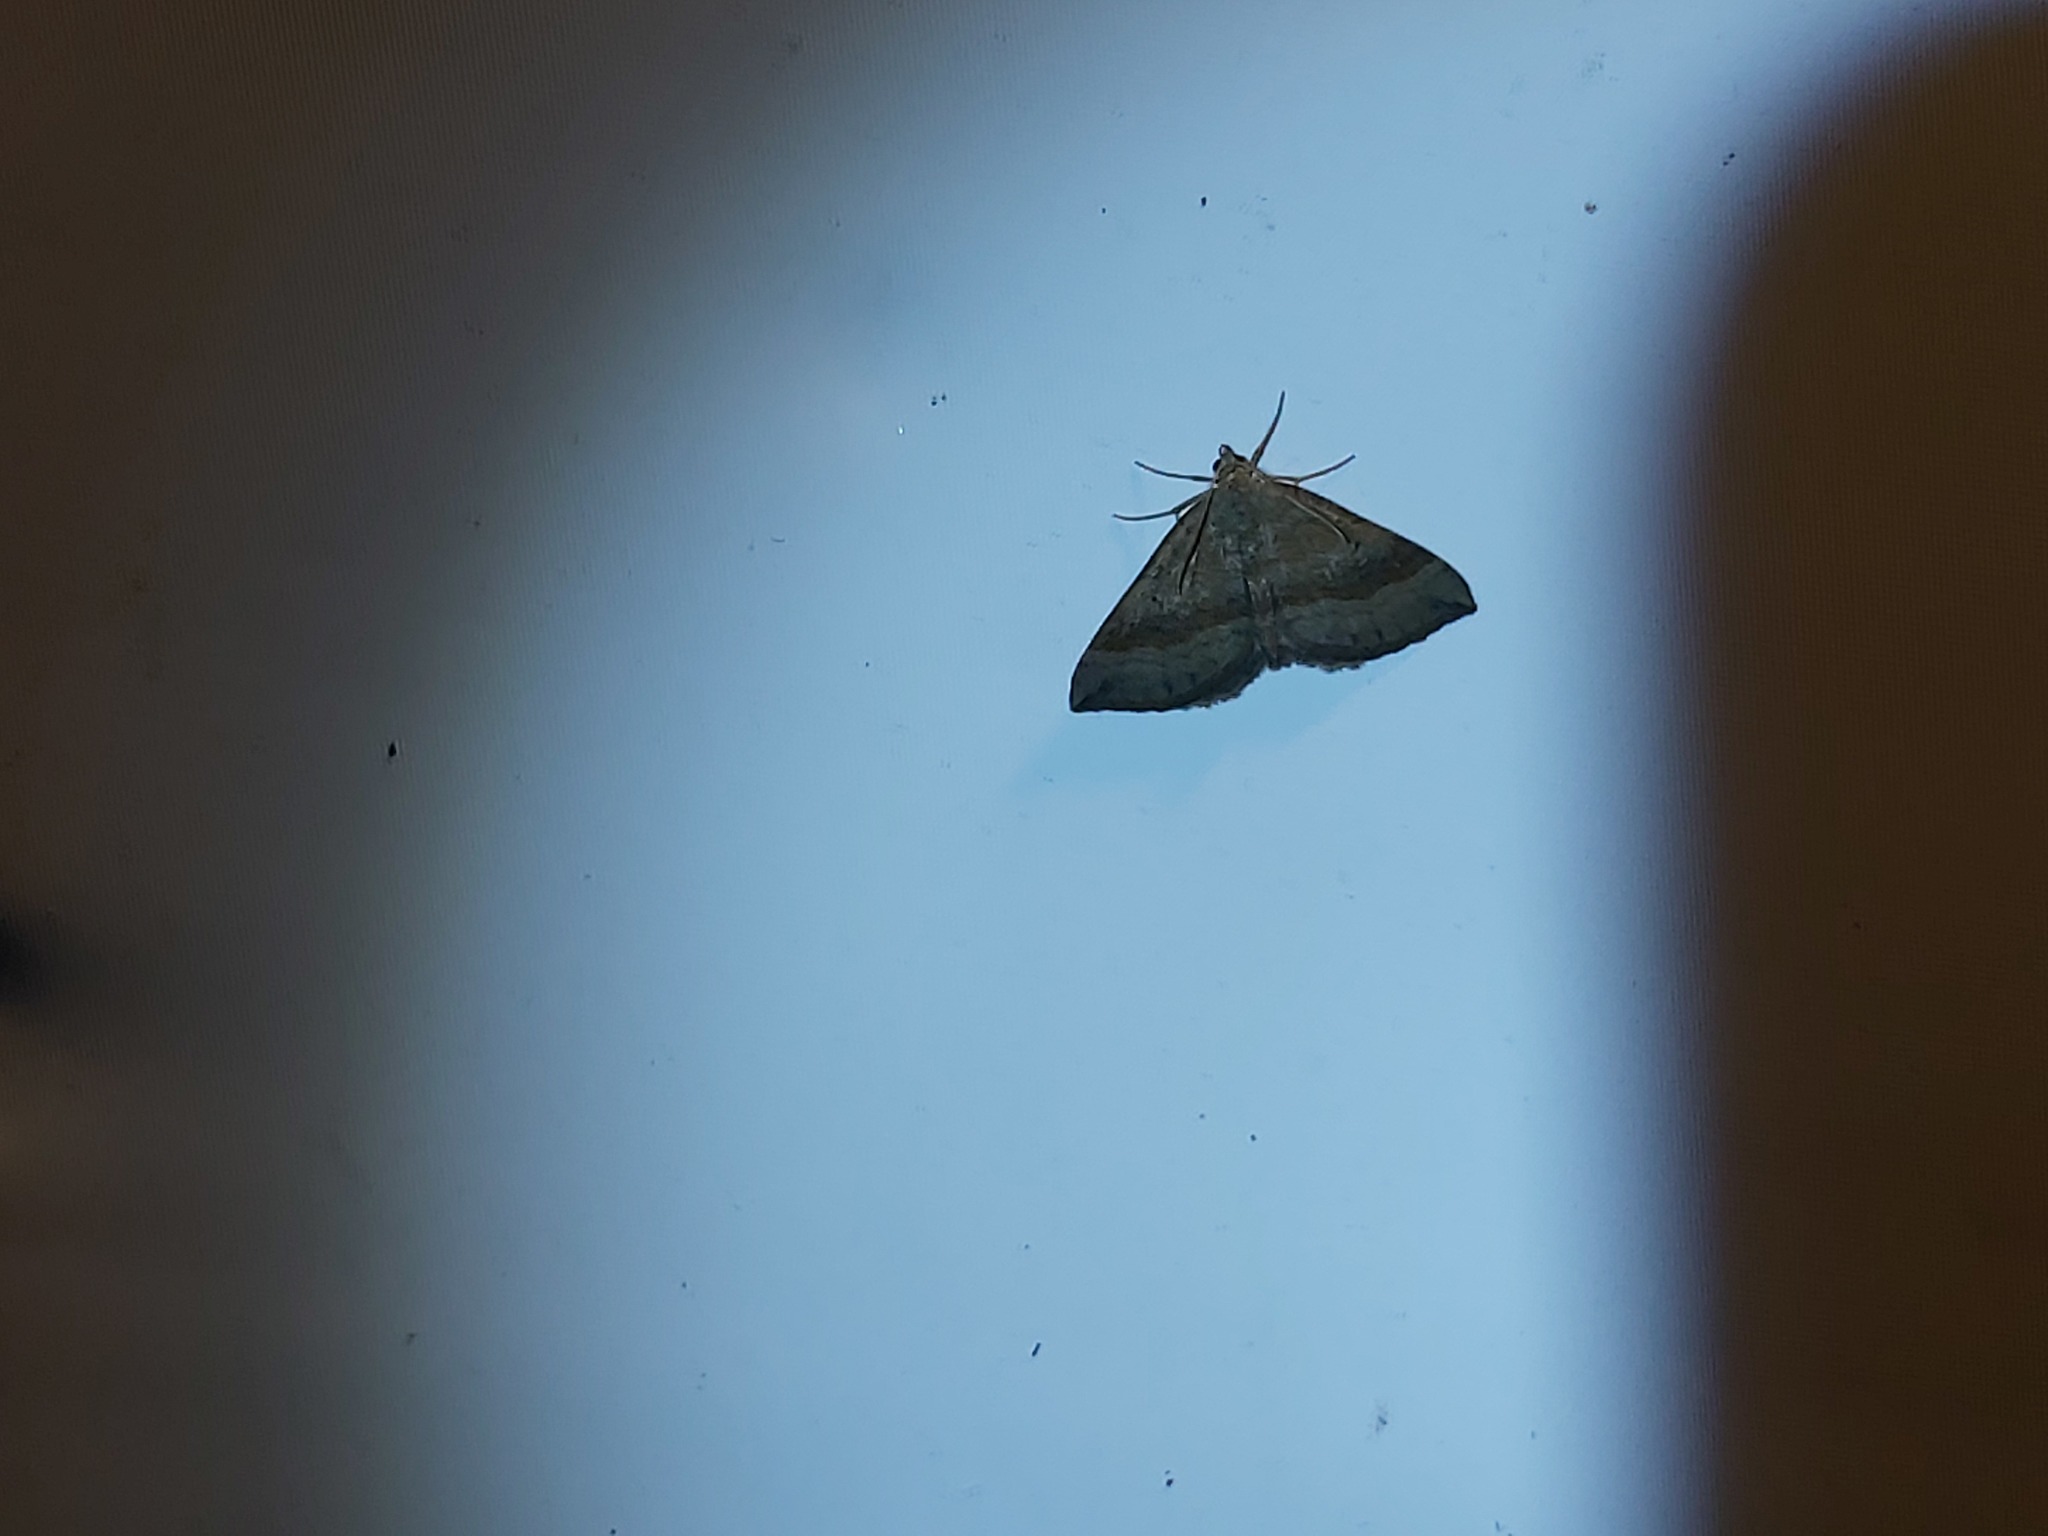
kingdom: Animalia
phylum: Arthropoda
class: Insecta
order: Lepidoptera
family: Geometridae
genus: Scotopteryx
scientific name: Scotopteryx chenopodiata
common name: Shaded broad-bar
